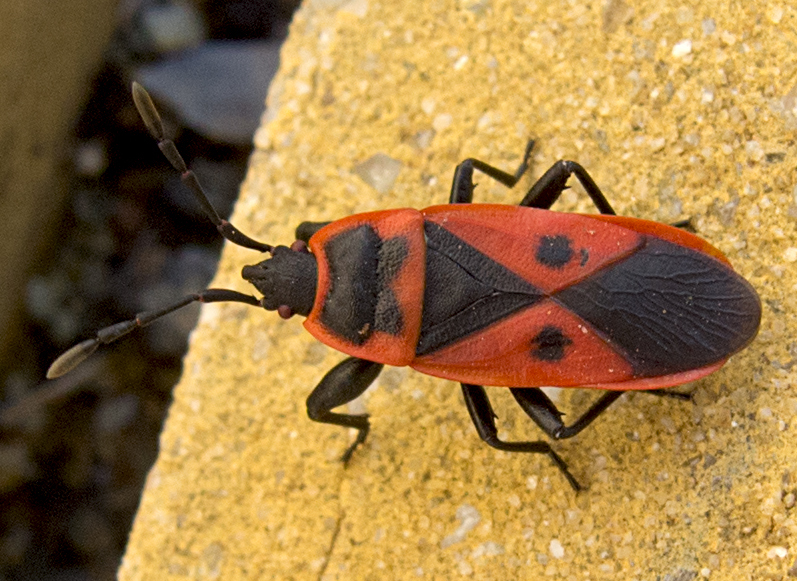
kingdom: Animalia
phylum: Arthropoda
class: Insecta
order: Hemiptera
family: Pyrrhocoridae
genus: Scantius
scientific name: Scantius aegyptius
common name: Red bug
